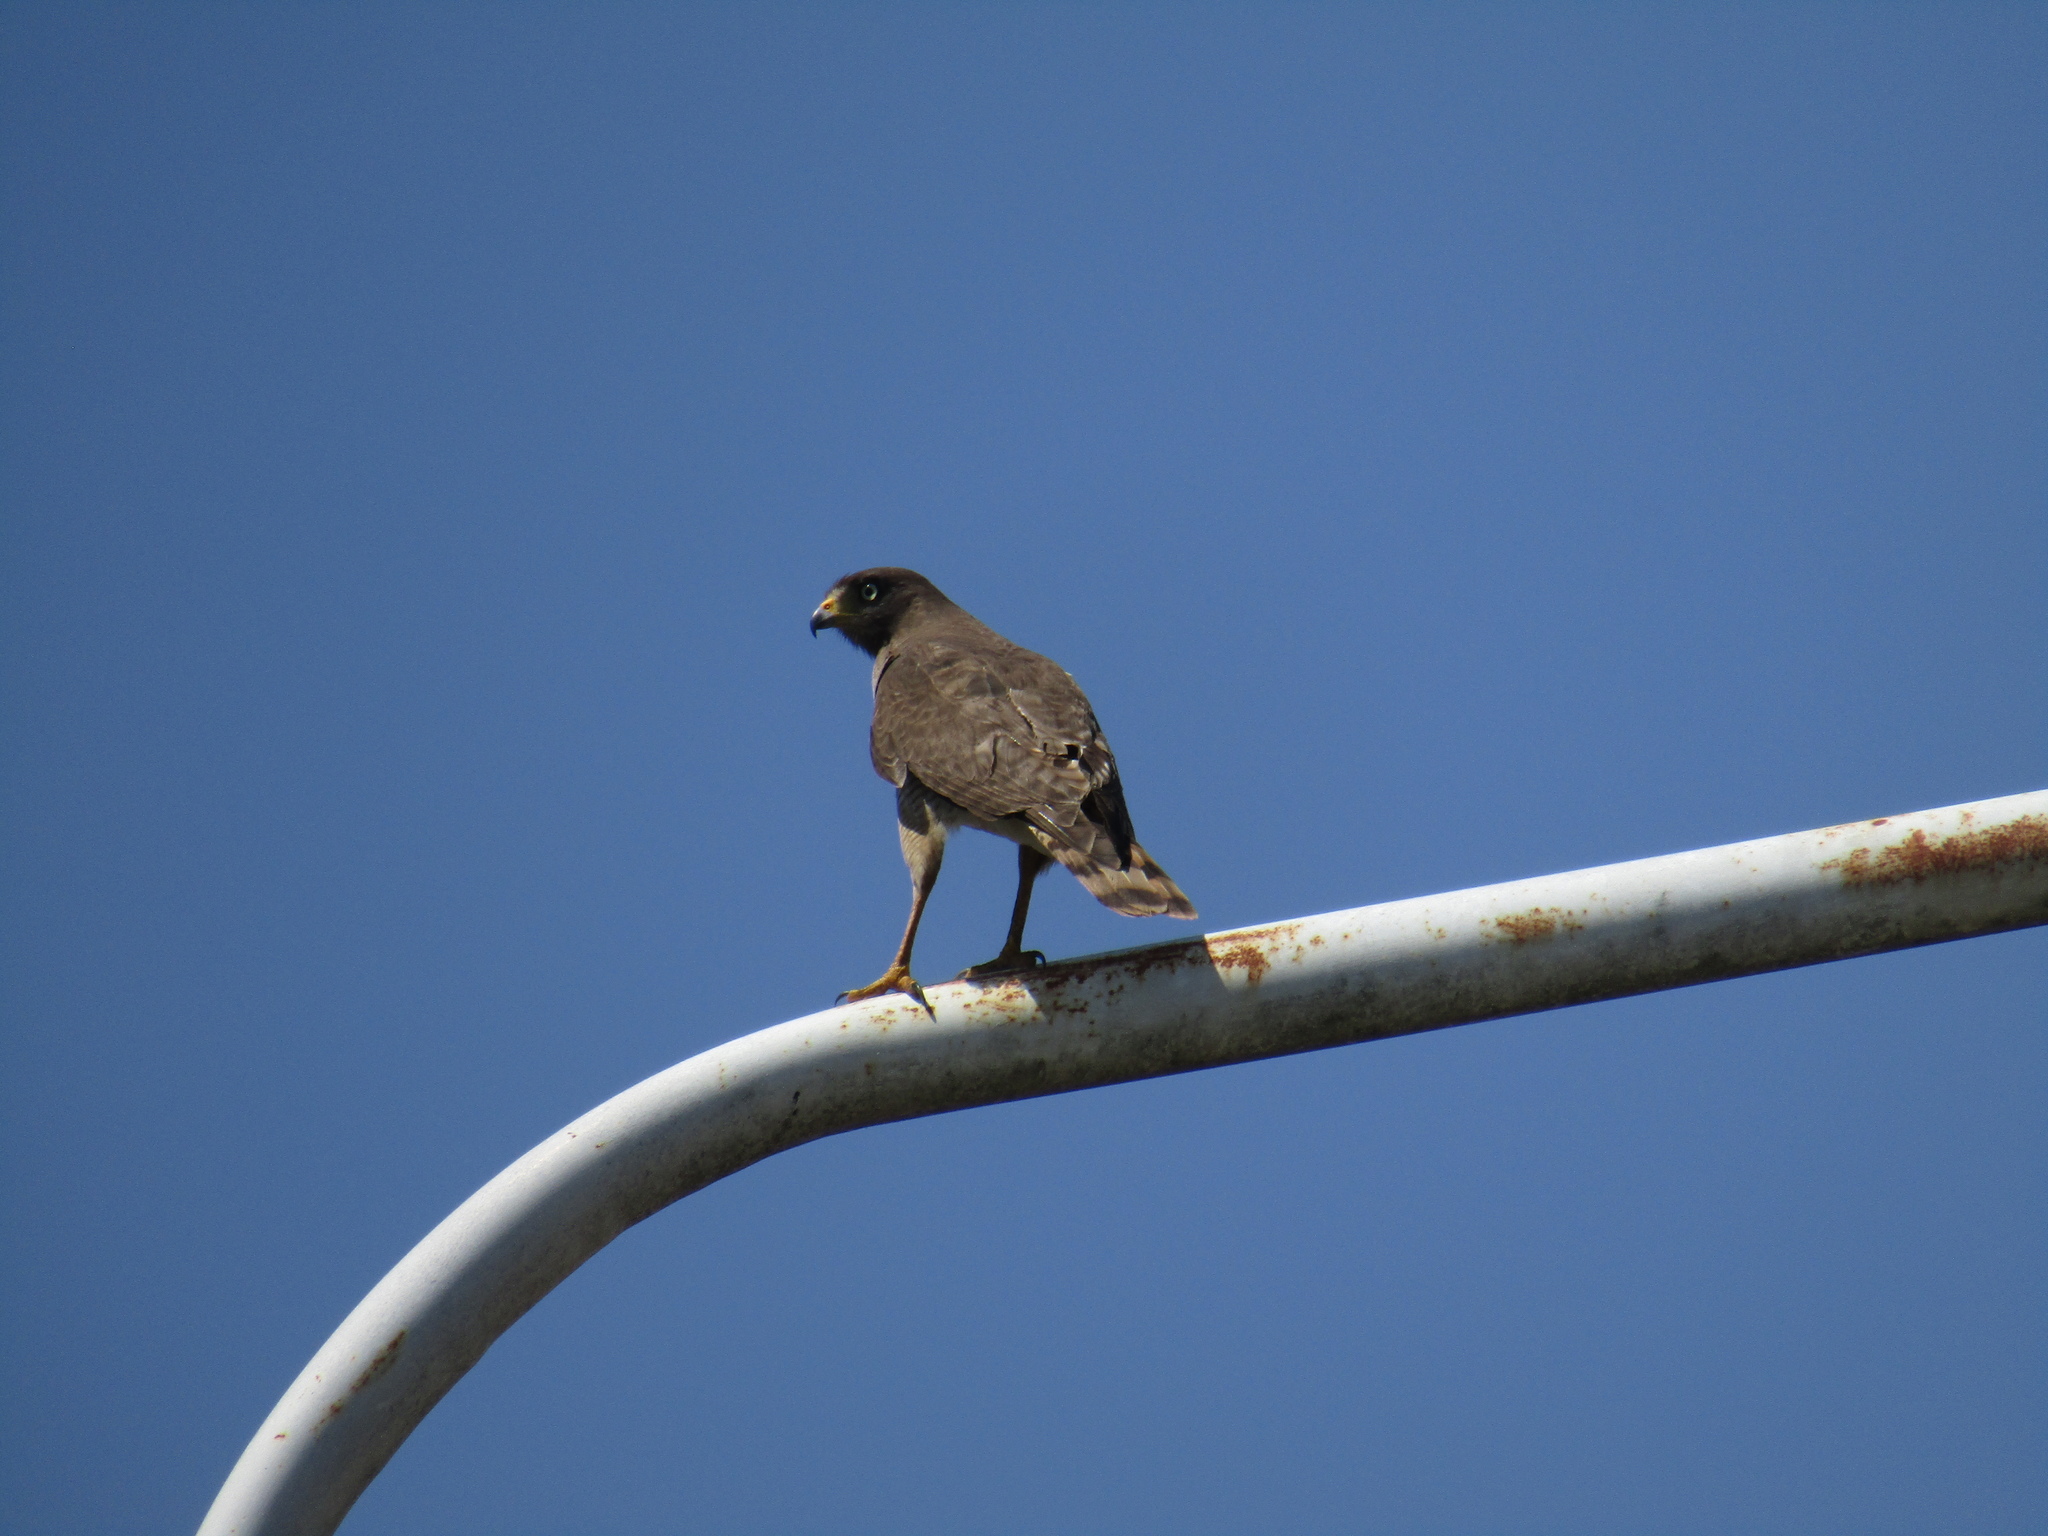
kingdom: Animalia
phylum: Chordata
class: Aves
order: Accipitriformes
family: Accipitridae
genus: Rupornis
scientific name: Rupornis magnirostris
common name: Roadside hawk
